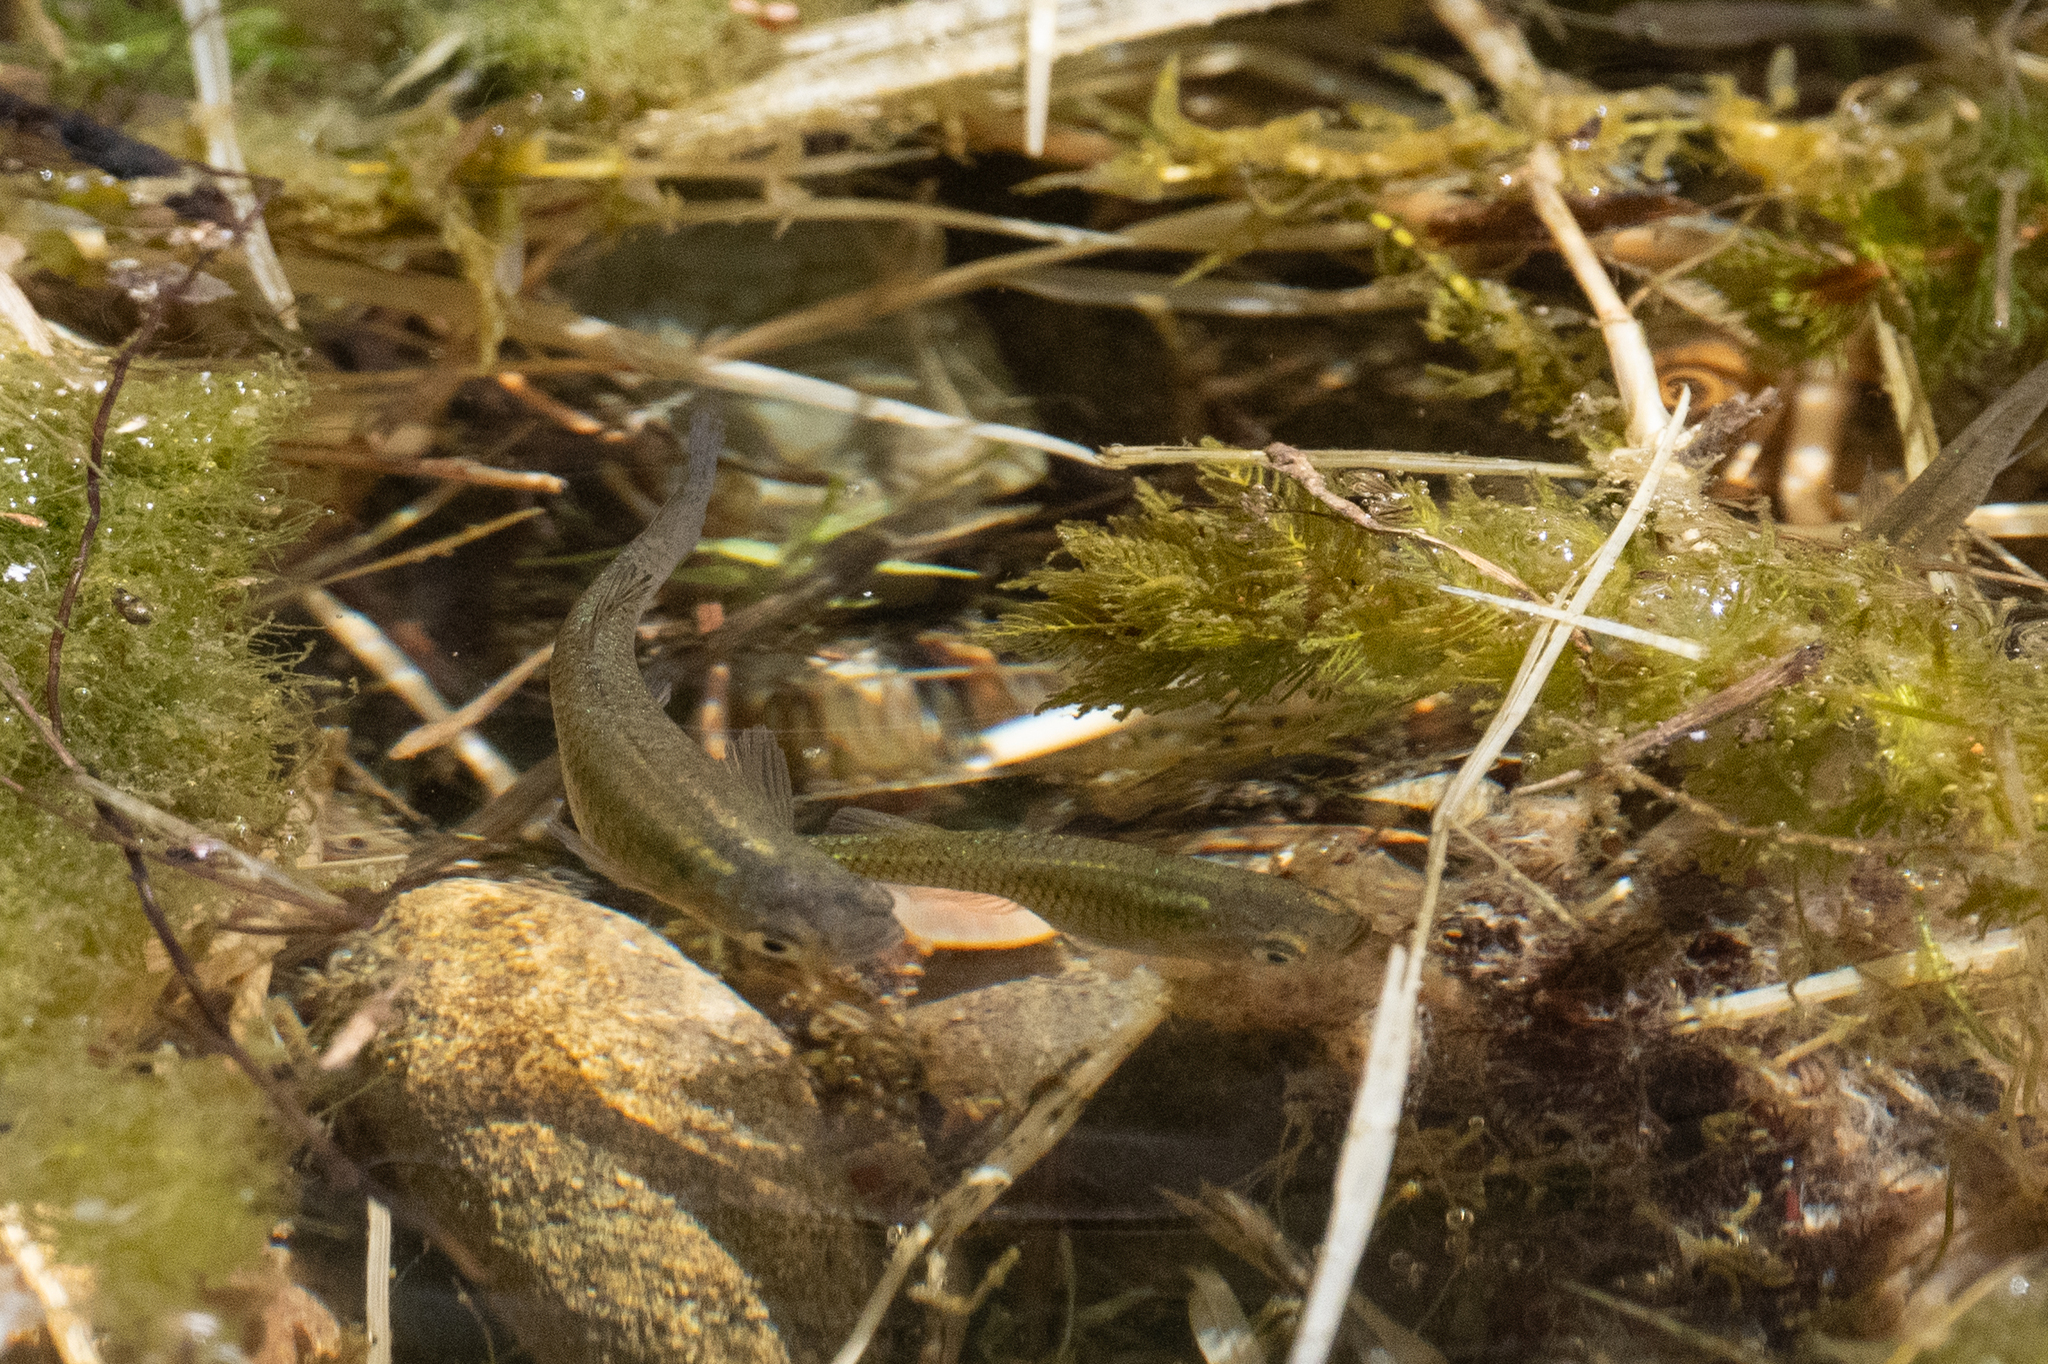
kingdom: Animalia
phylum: Chordata
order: Cyprinodontiformes
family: Poeciliidae
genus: Gambusia
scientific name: Gambusia affinis
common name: Mosquitofish
